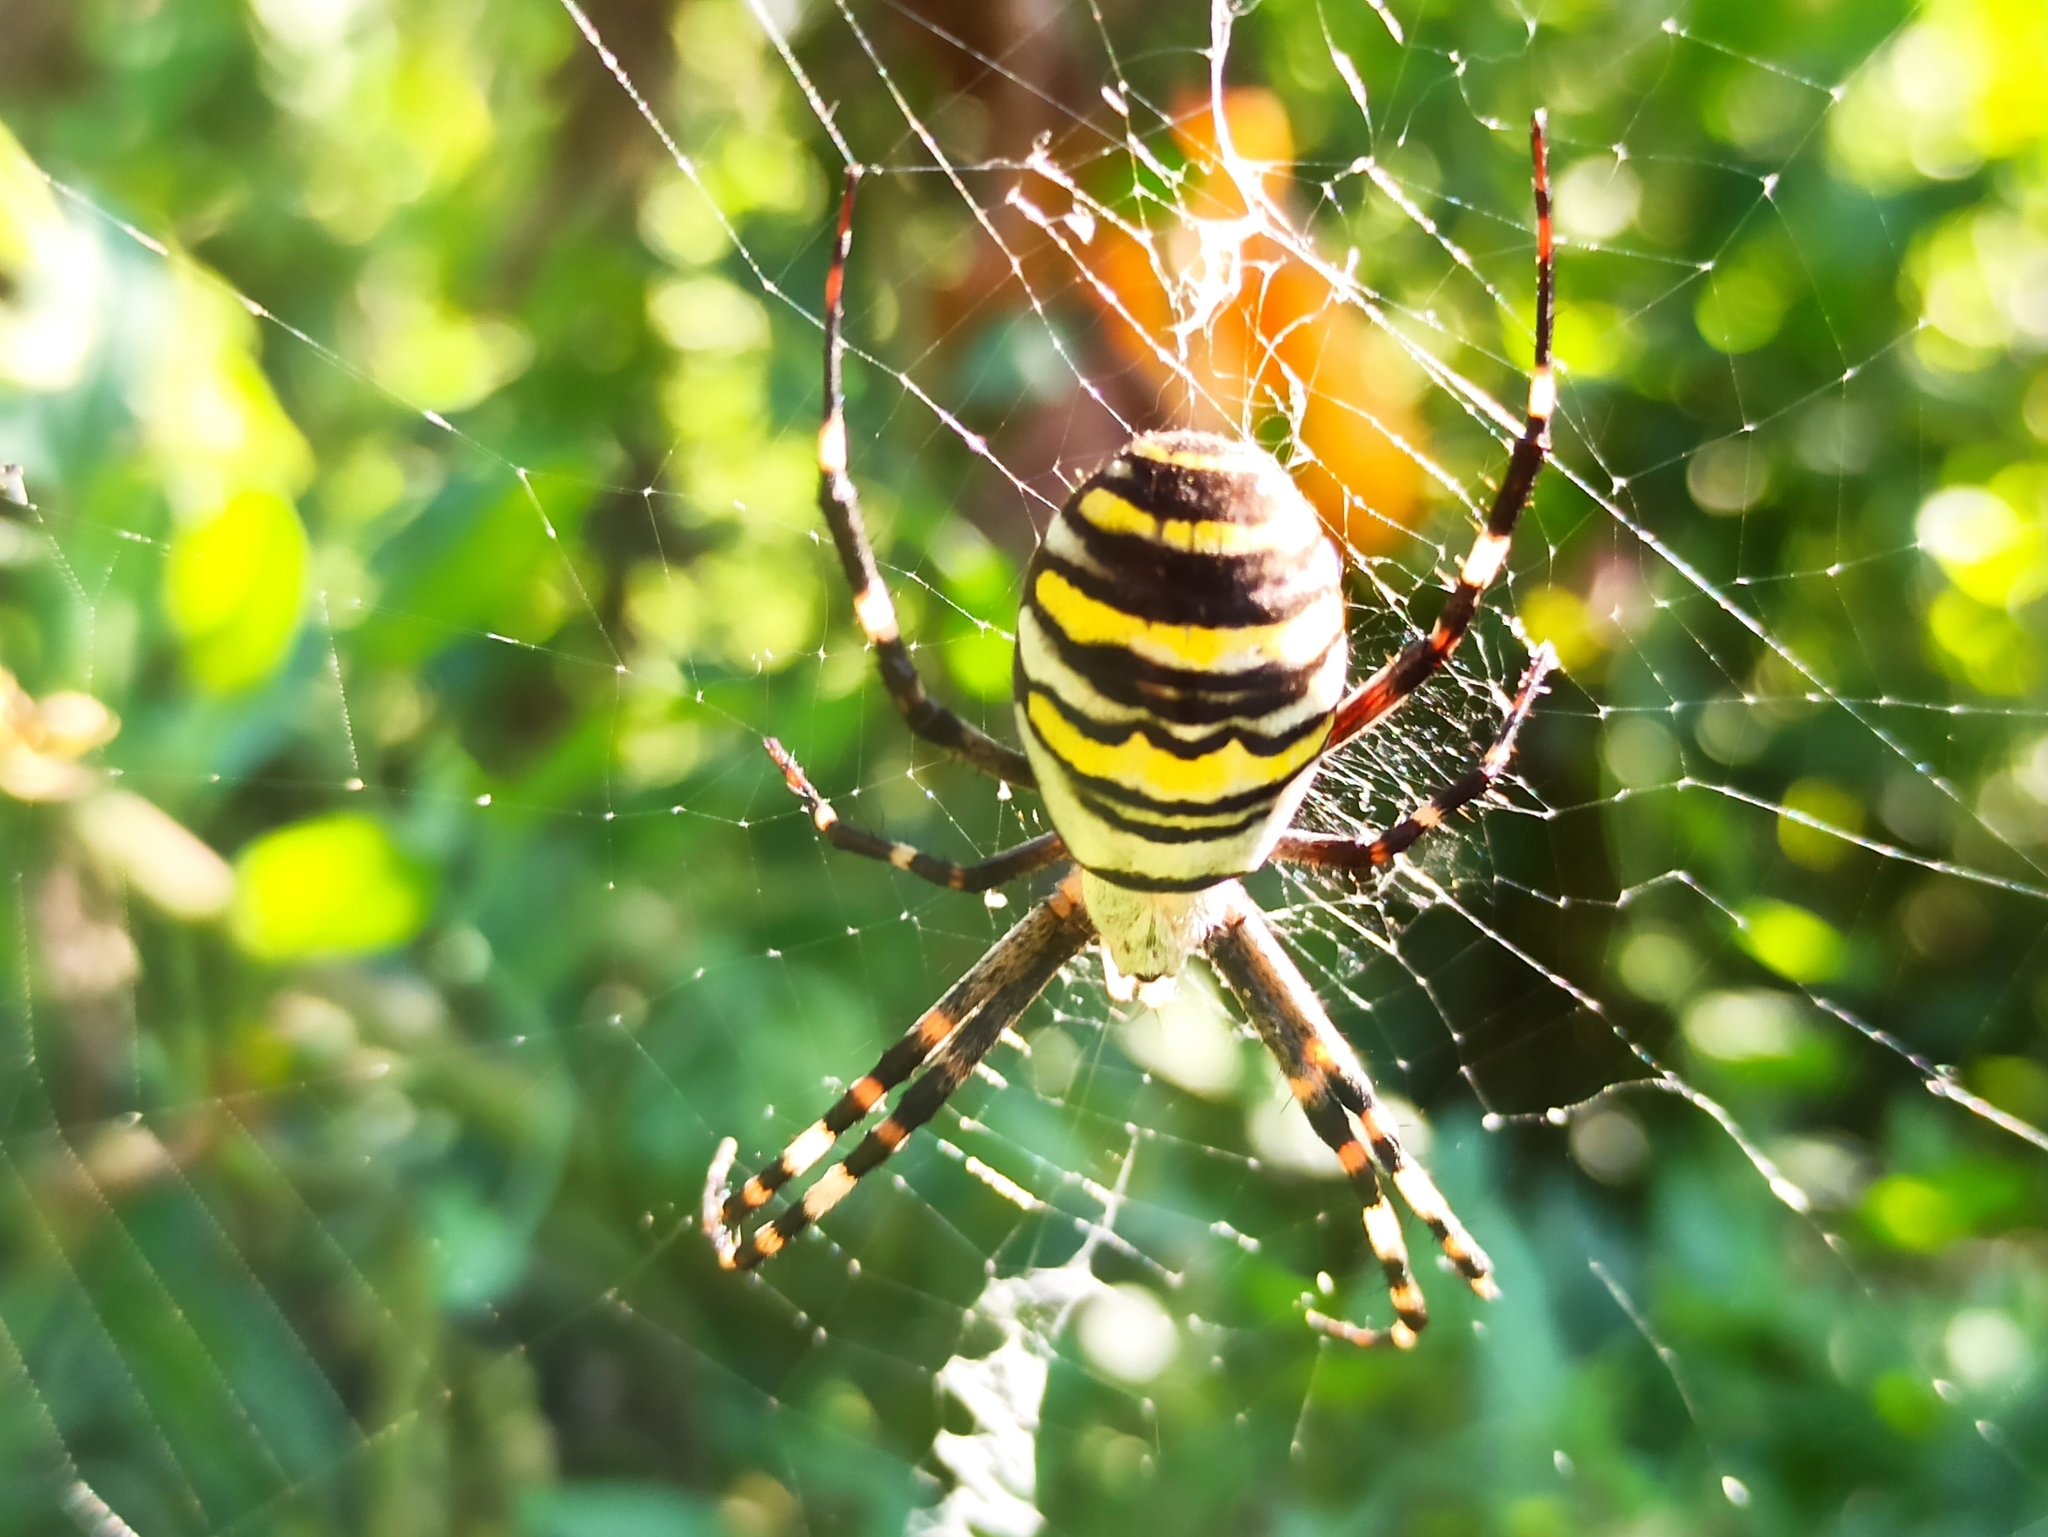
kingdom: Animalia
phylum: Arthropoda
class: Arachnida
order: Araneae
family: Araneidae
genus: Argiope
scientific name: Argiope bruennichi
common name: Wasp spider
